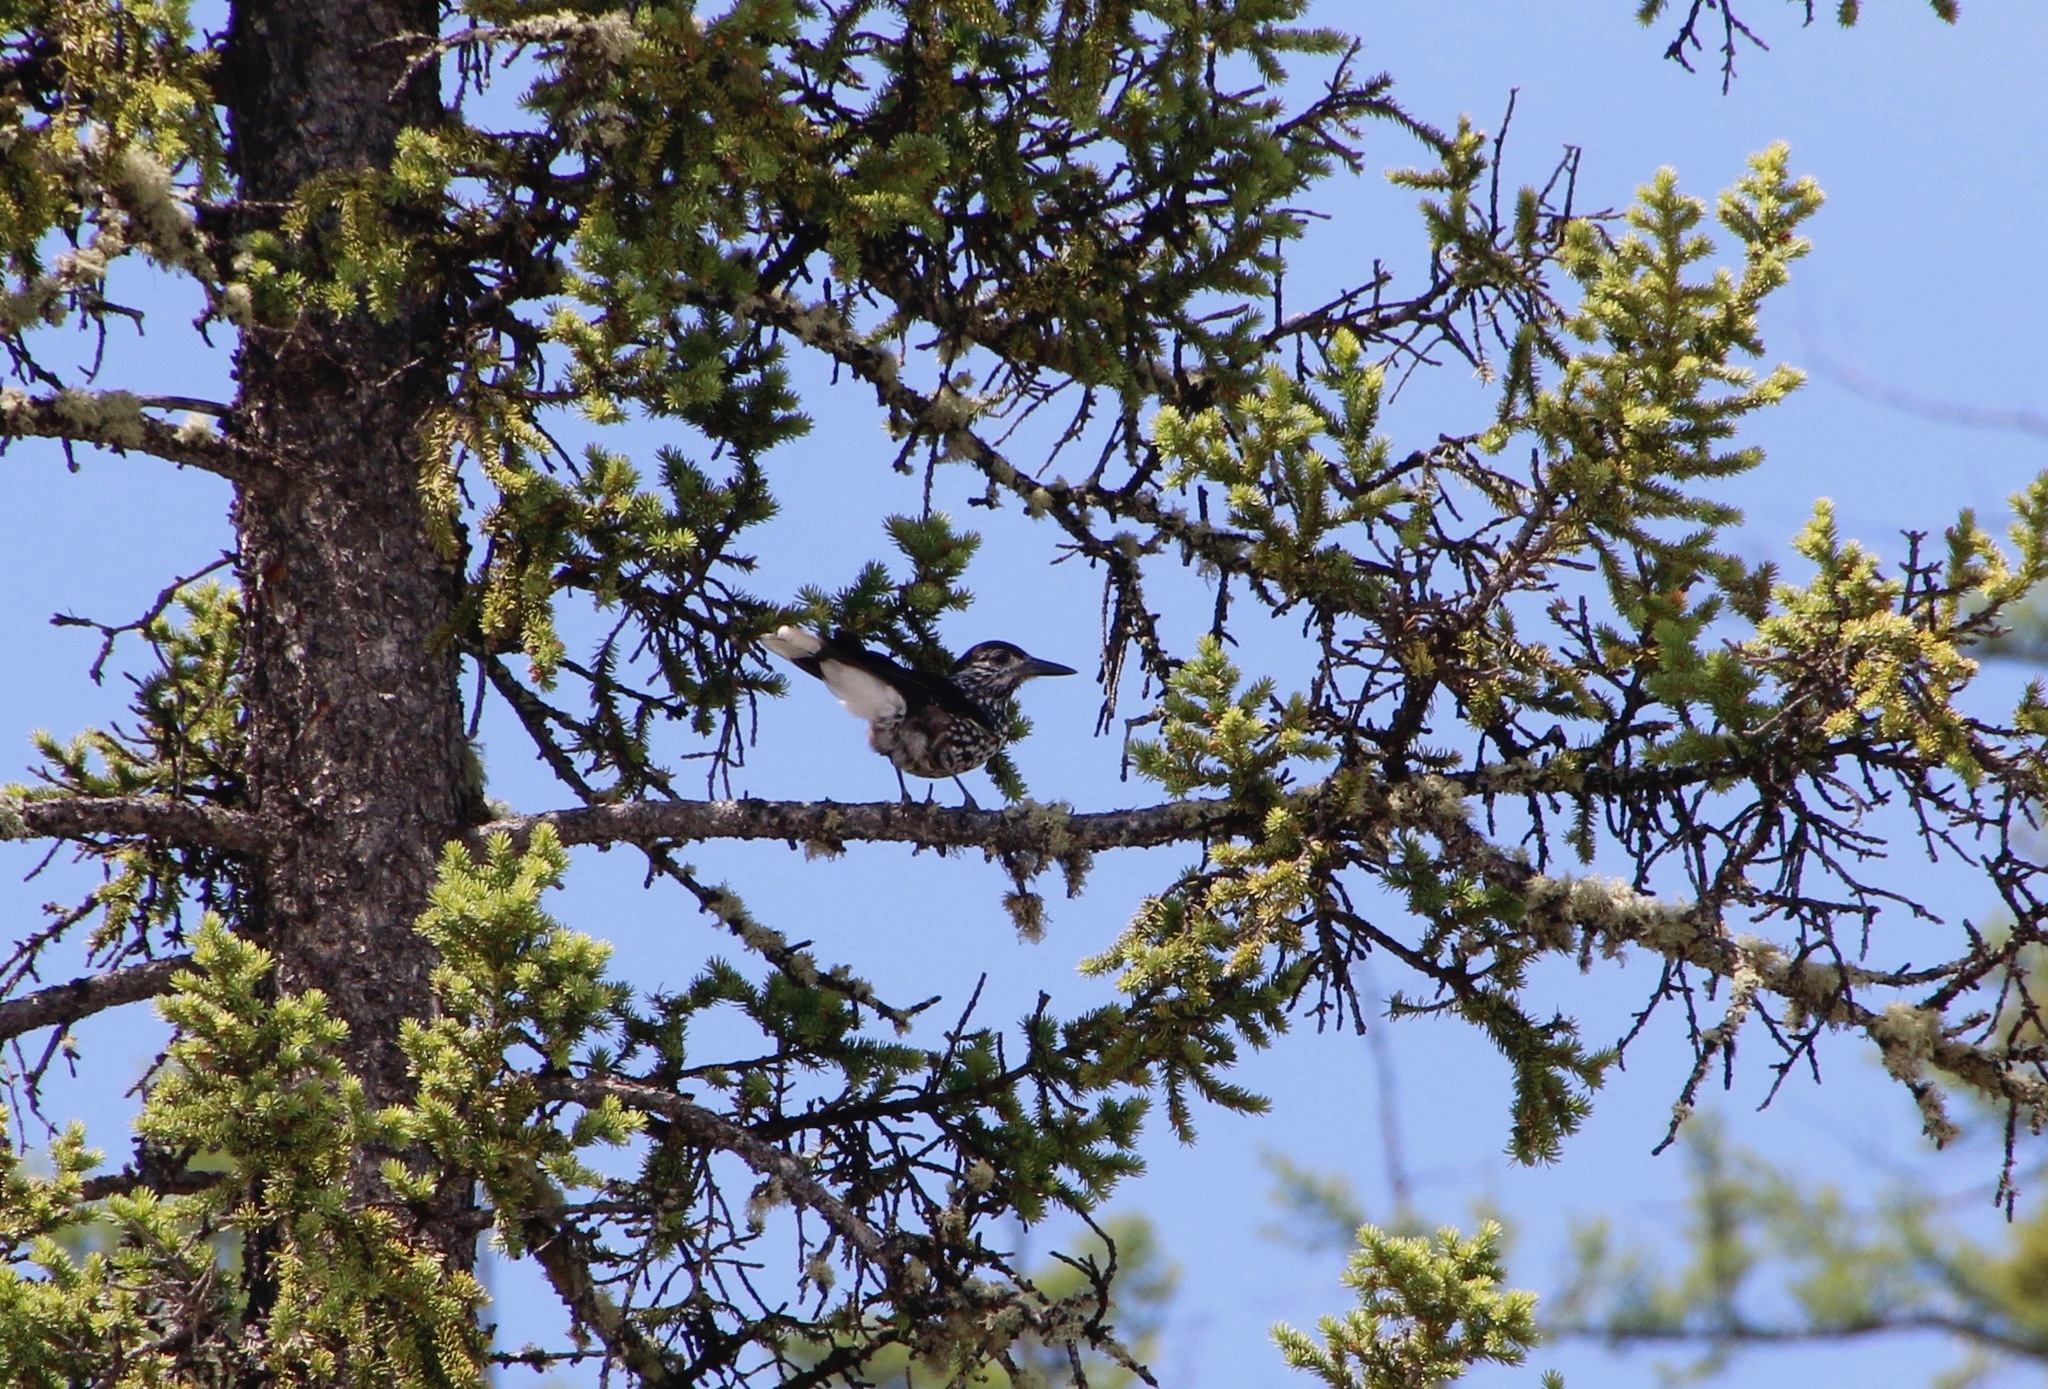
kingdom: Animalia
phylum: Chordata
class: Aves
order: Passeriformes
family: Corvidae
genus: Nucifraga
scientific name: Nucifraga caryocatactes
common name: Spotted nutcracker
